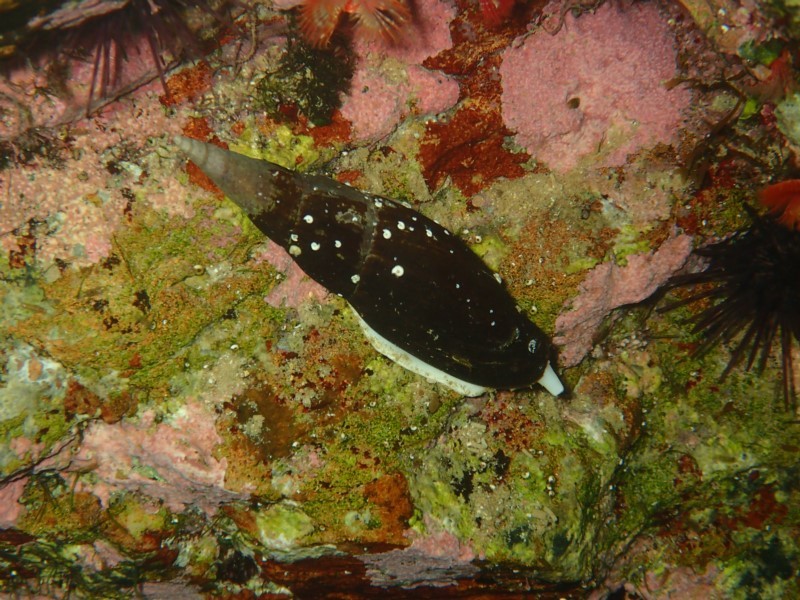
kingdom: Animalia
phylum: Mollusca
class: Gastropoda
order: Neogastropoda
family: Mitridae
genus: Isara
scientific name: Isara carbonaria
